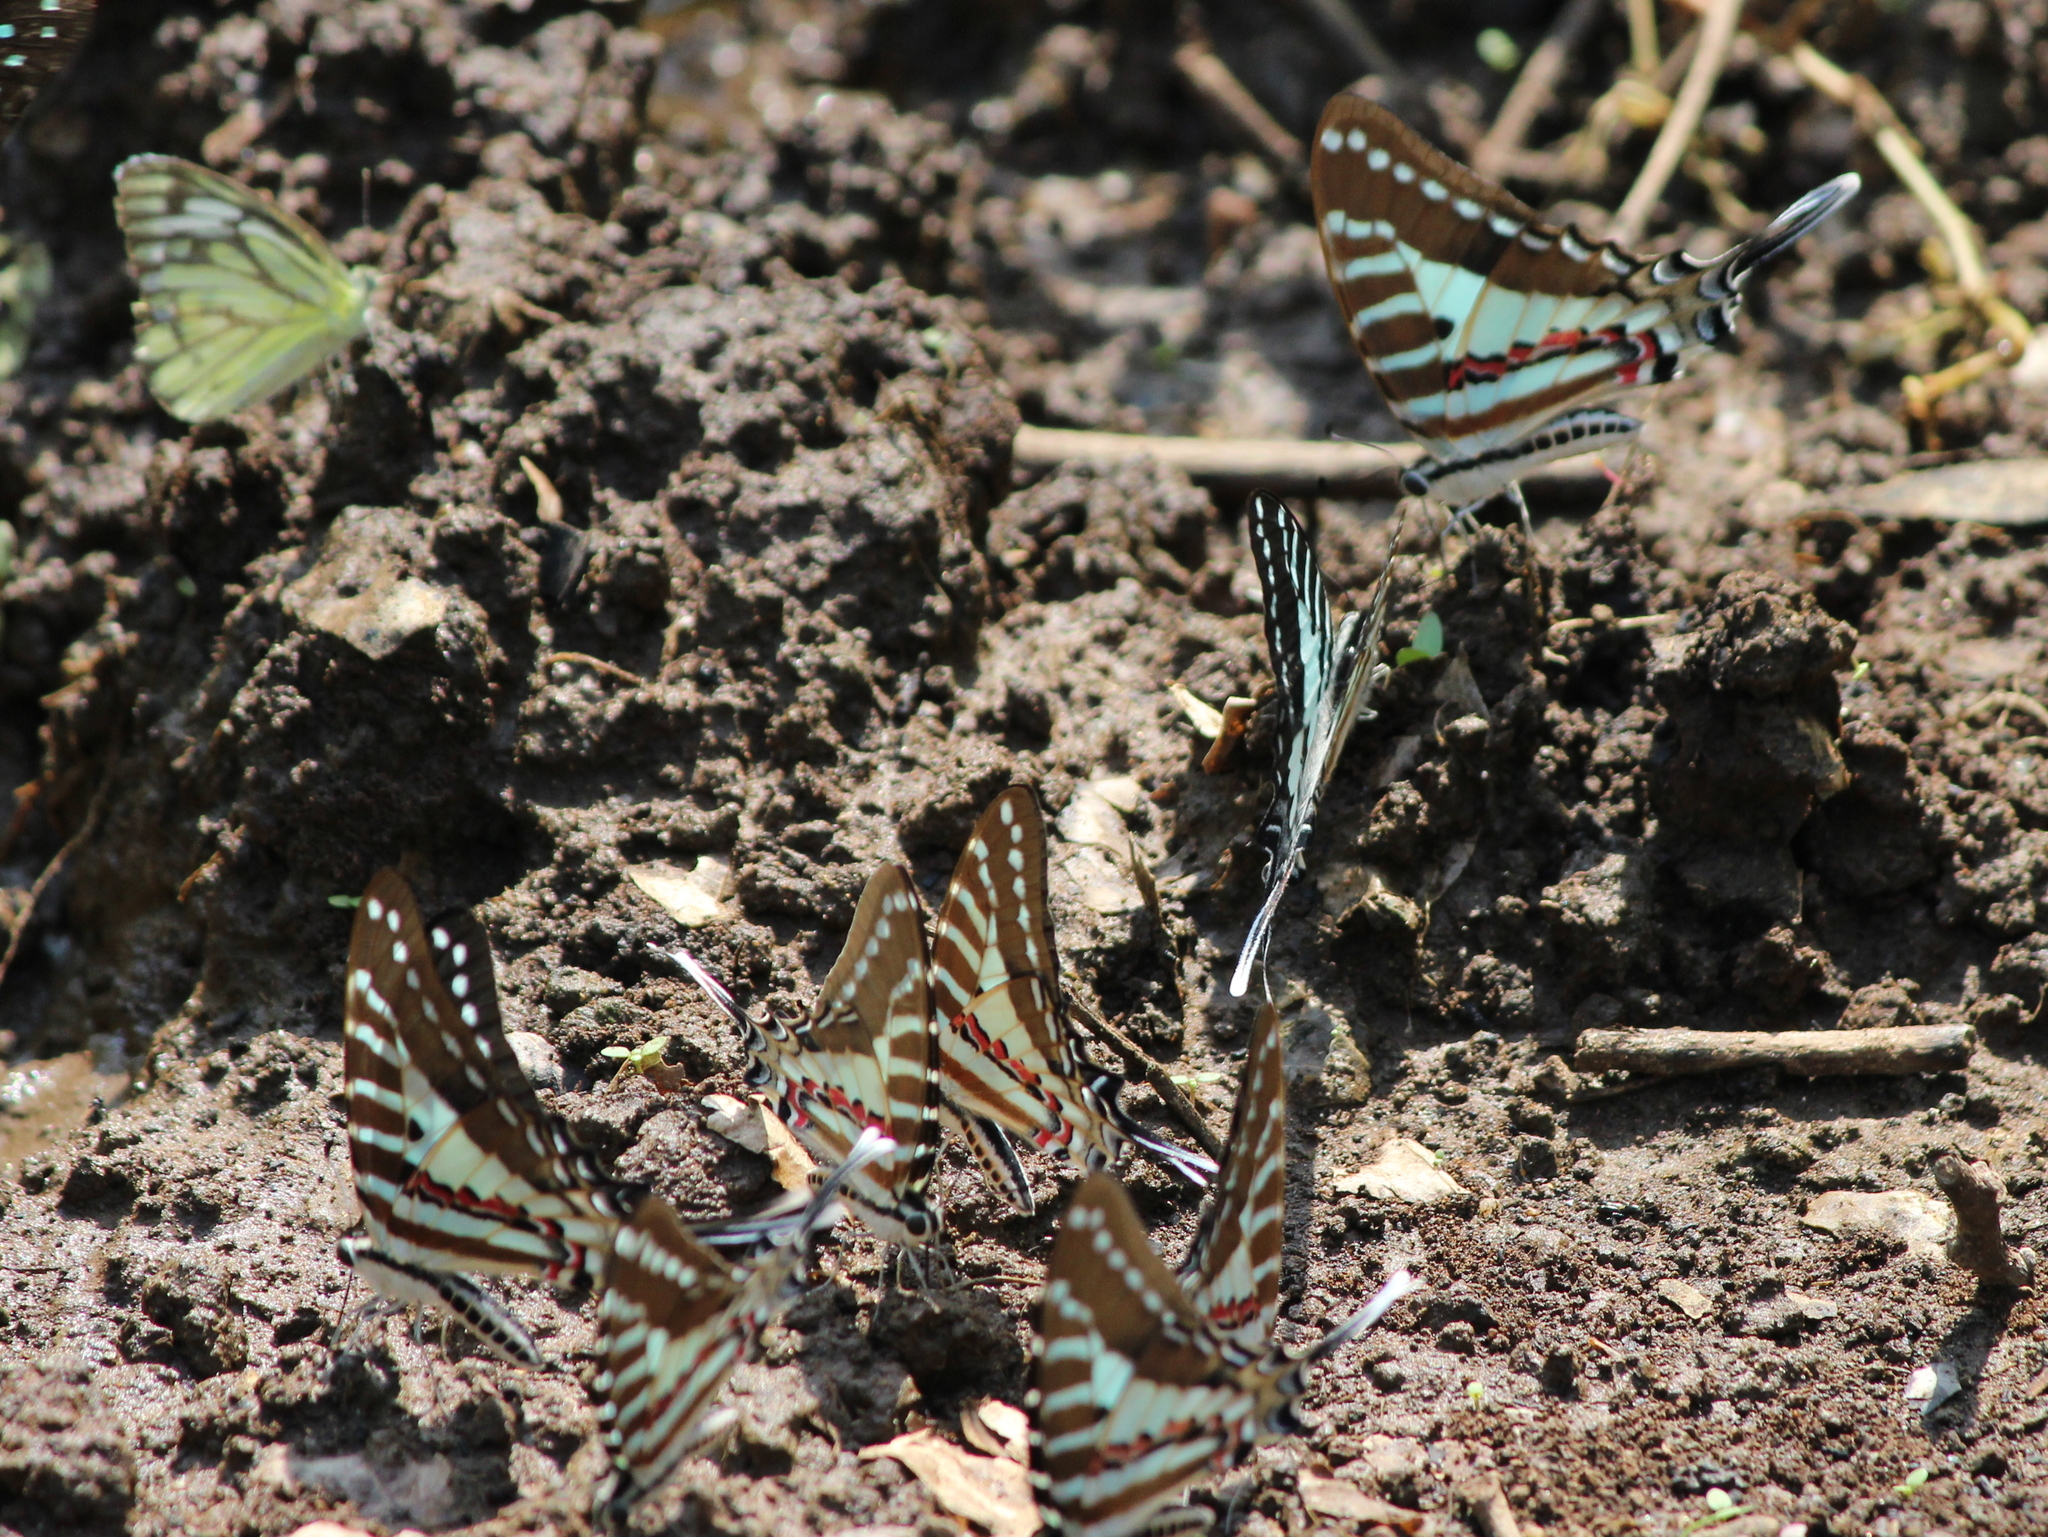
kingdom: Animalia
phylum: Arthropoda
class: Insecta
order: Lepidoptera
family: Papilionidae
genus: Graphium
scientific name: Graphium nomius
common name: Spot swordtail
